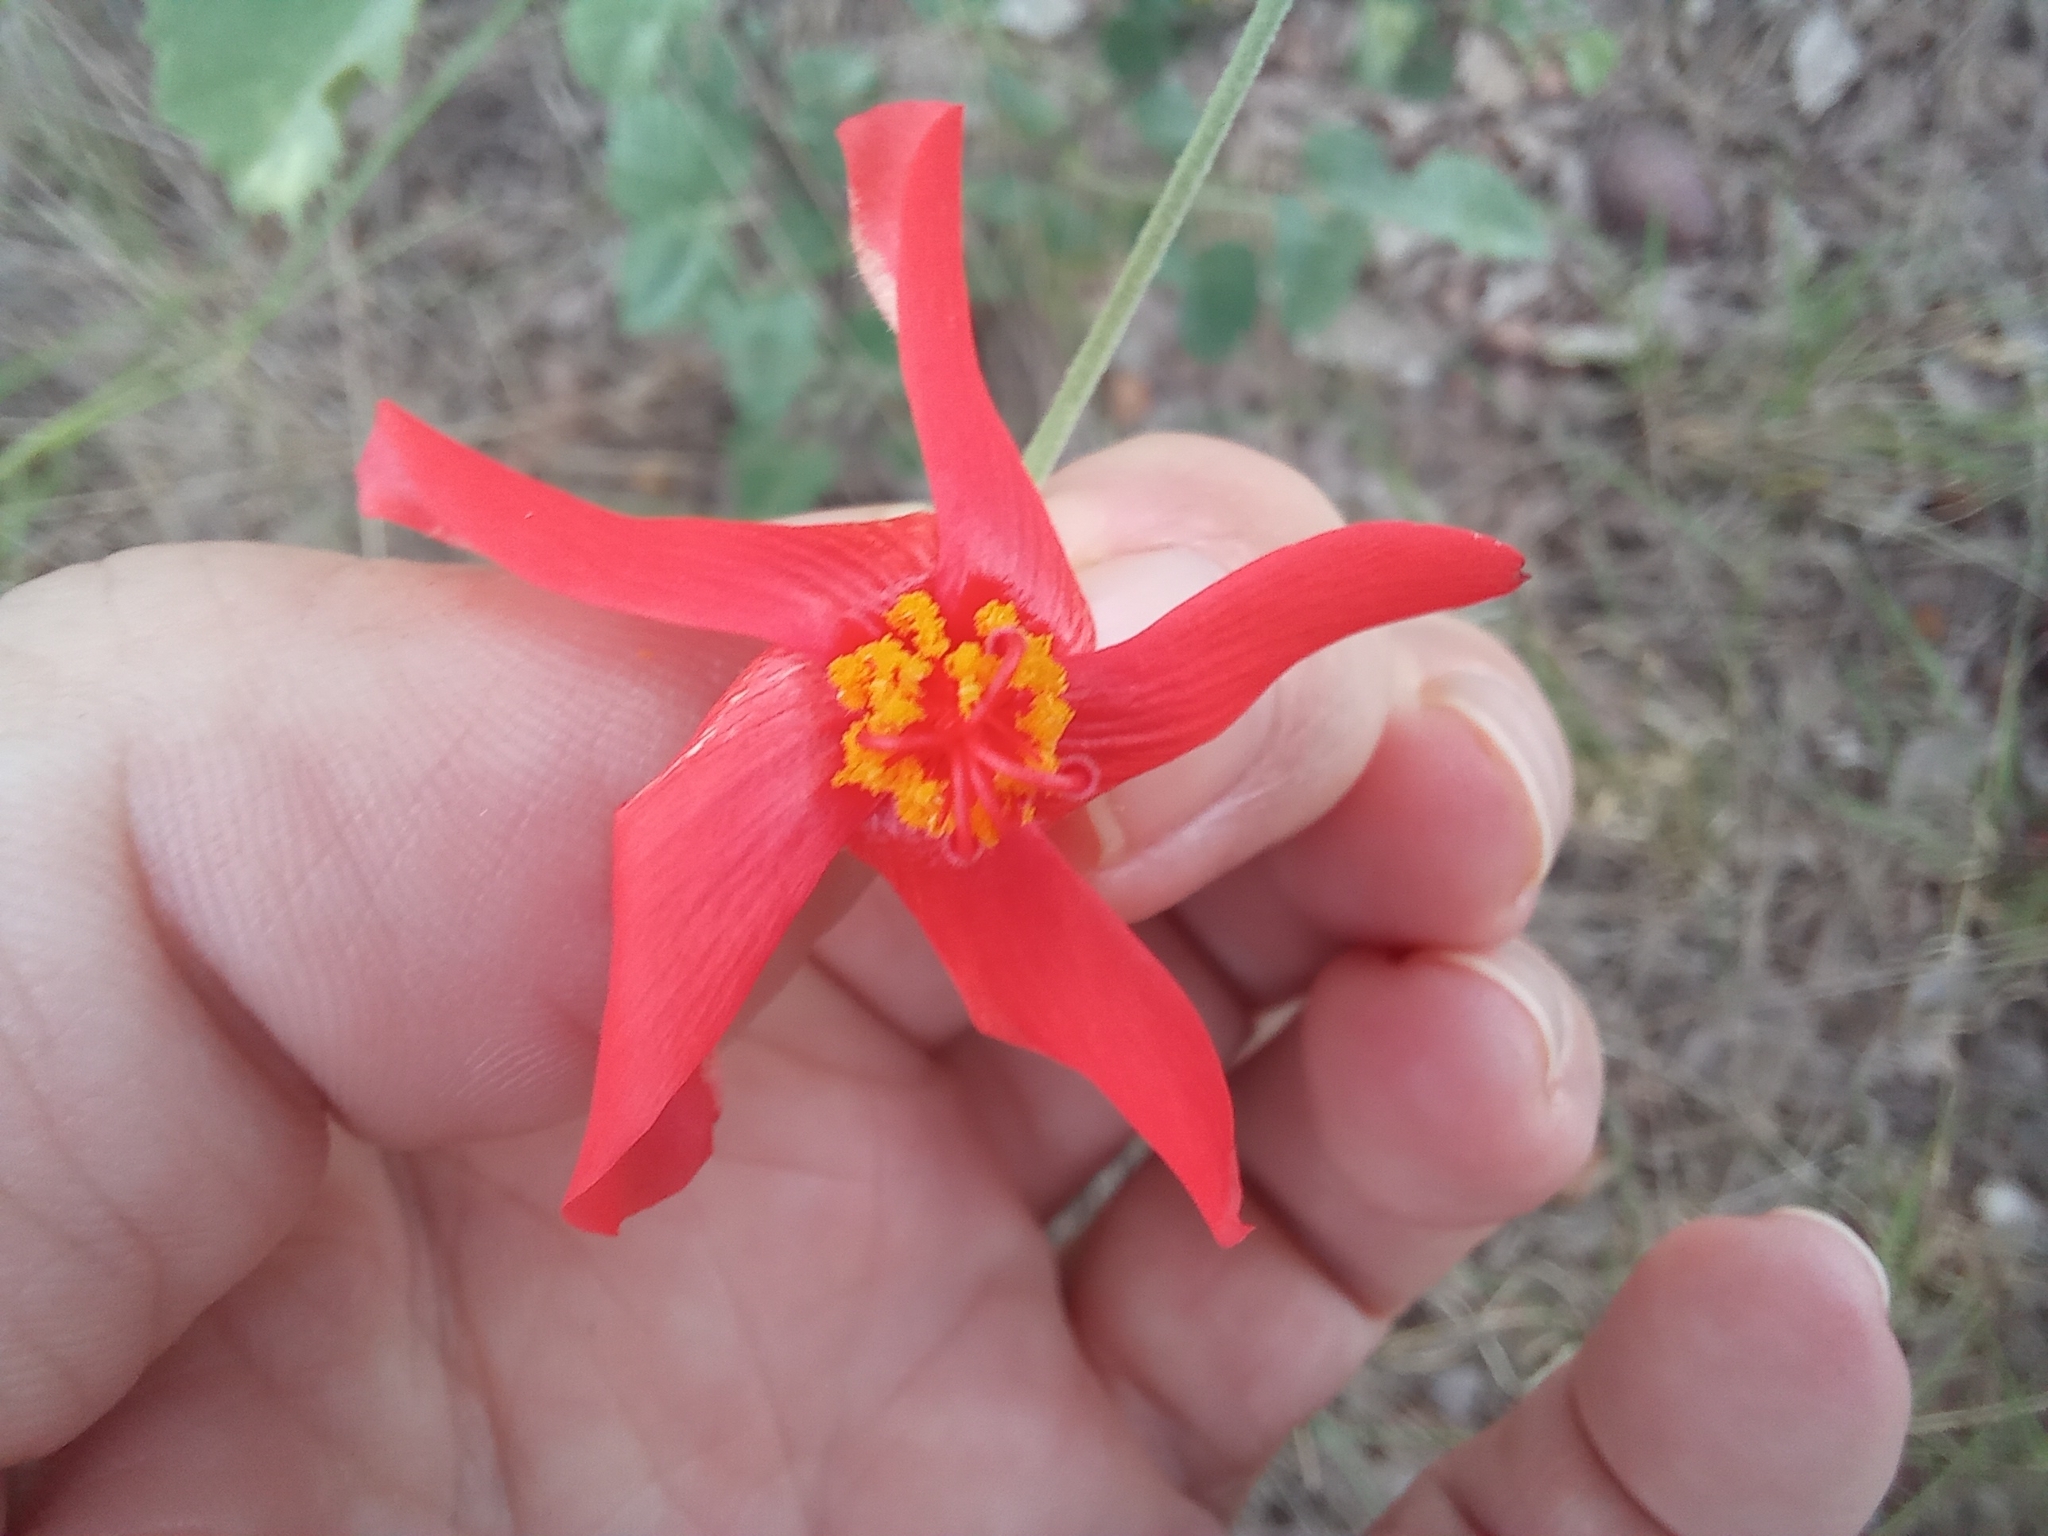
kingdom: Plantae
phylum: Tracheophyta
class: Magnoliopsida
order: Malvales
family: Malvaceae
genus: Hibiscus
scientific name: Hibiscus waterbergensis
